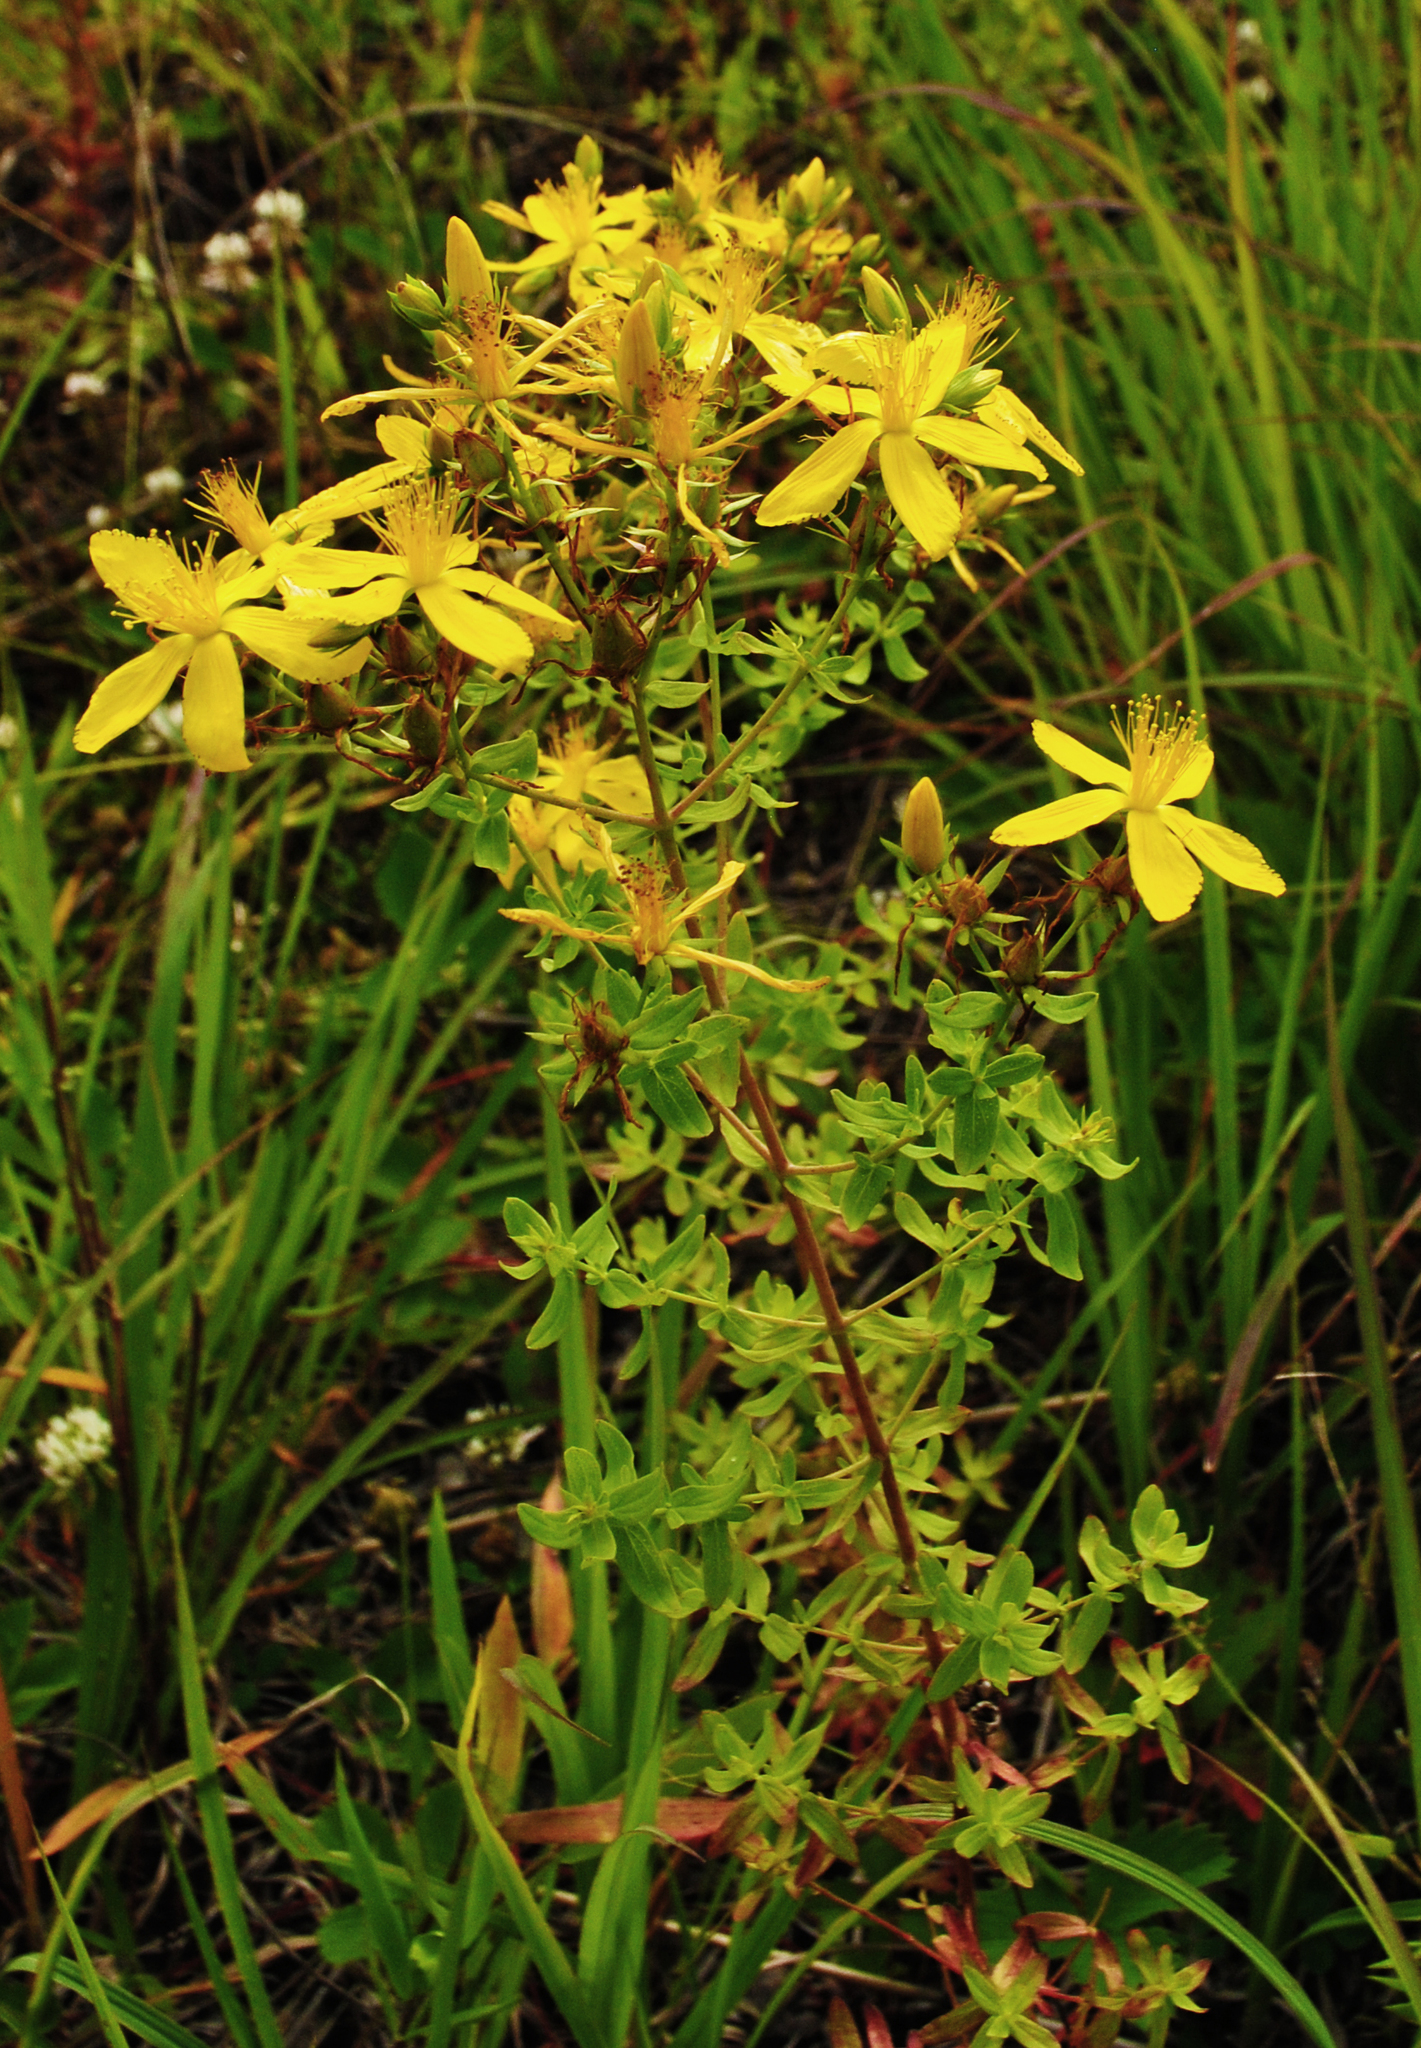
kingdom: Plantae
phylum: Tracheophyta
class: Magnoliopsida
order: Malpighiales
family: Hypericaceae
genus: Hypericum
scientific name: Hypericum perforatum
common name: Common st. johnswort
